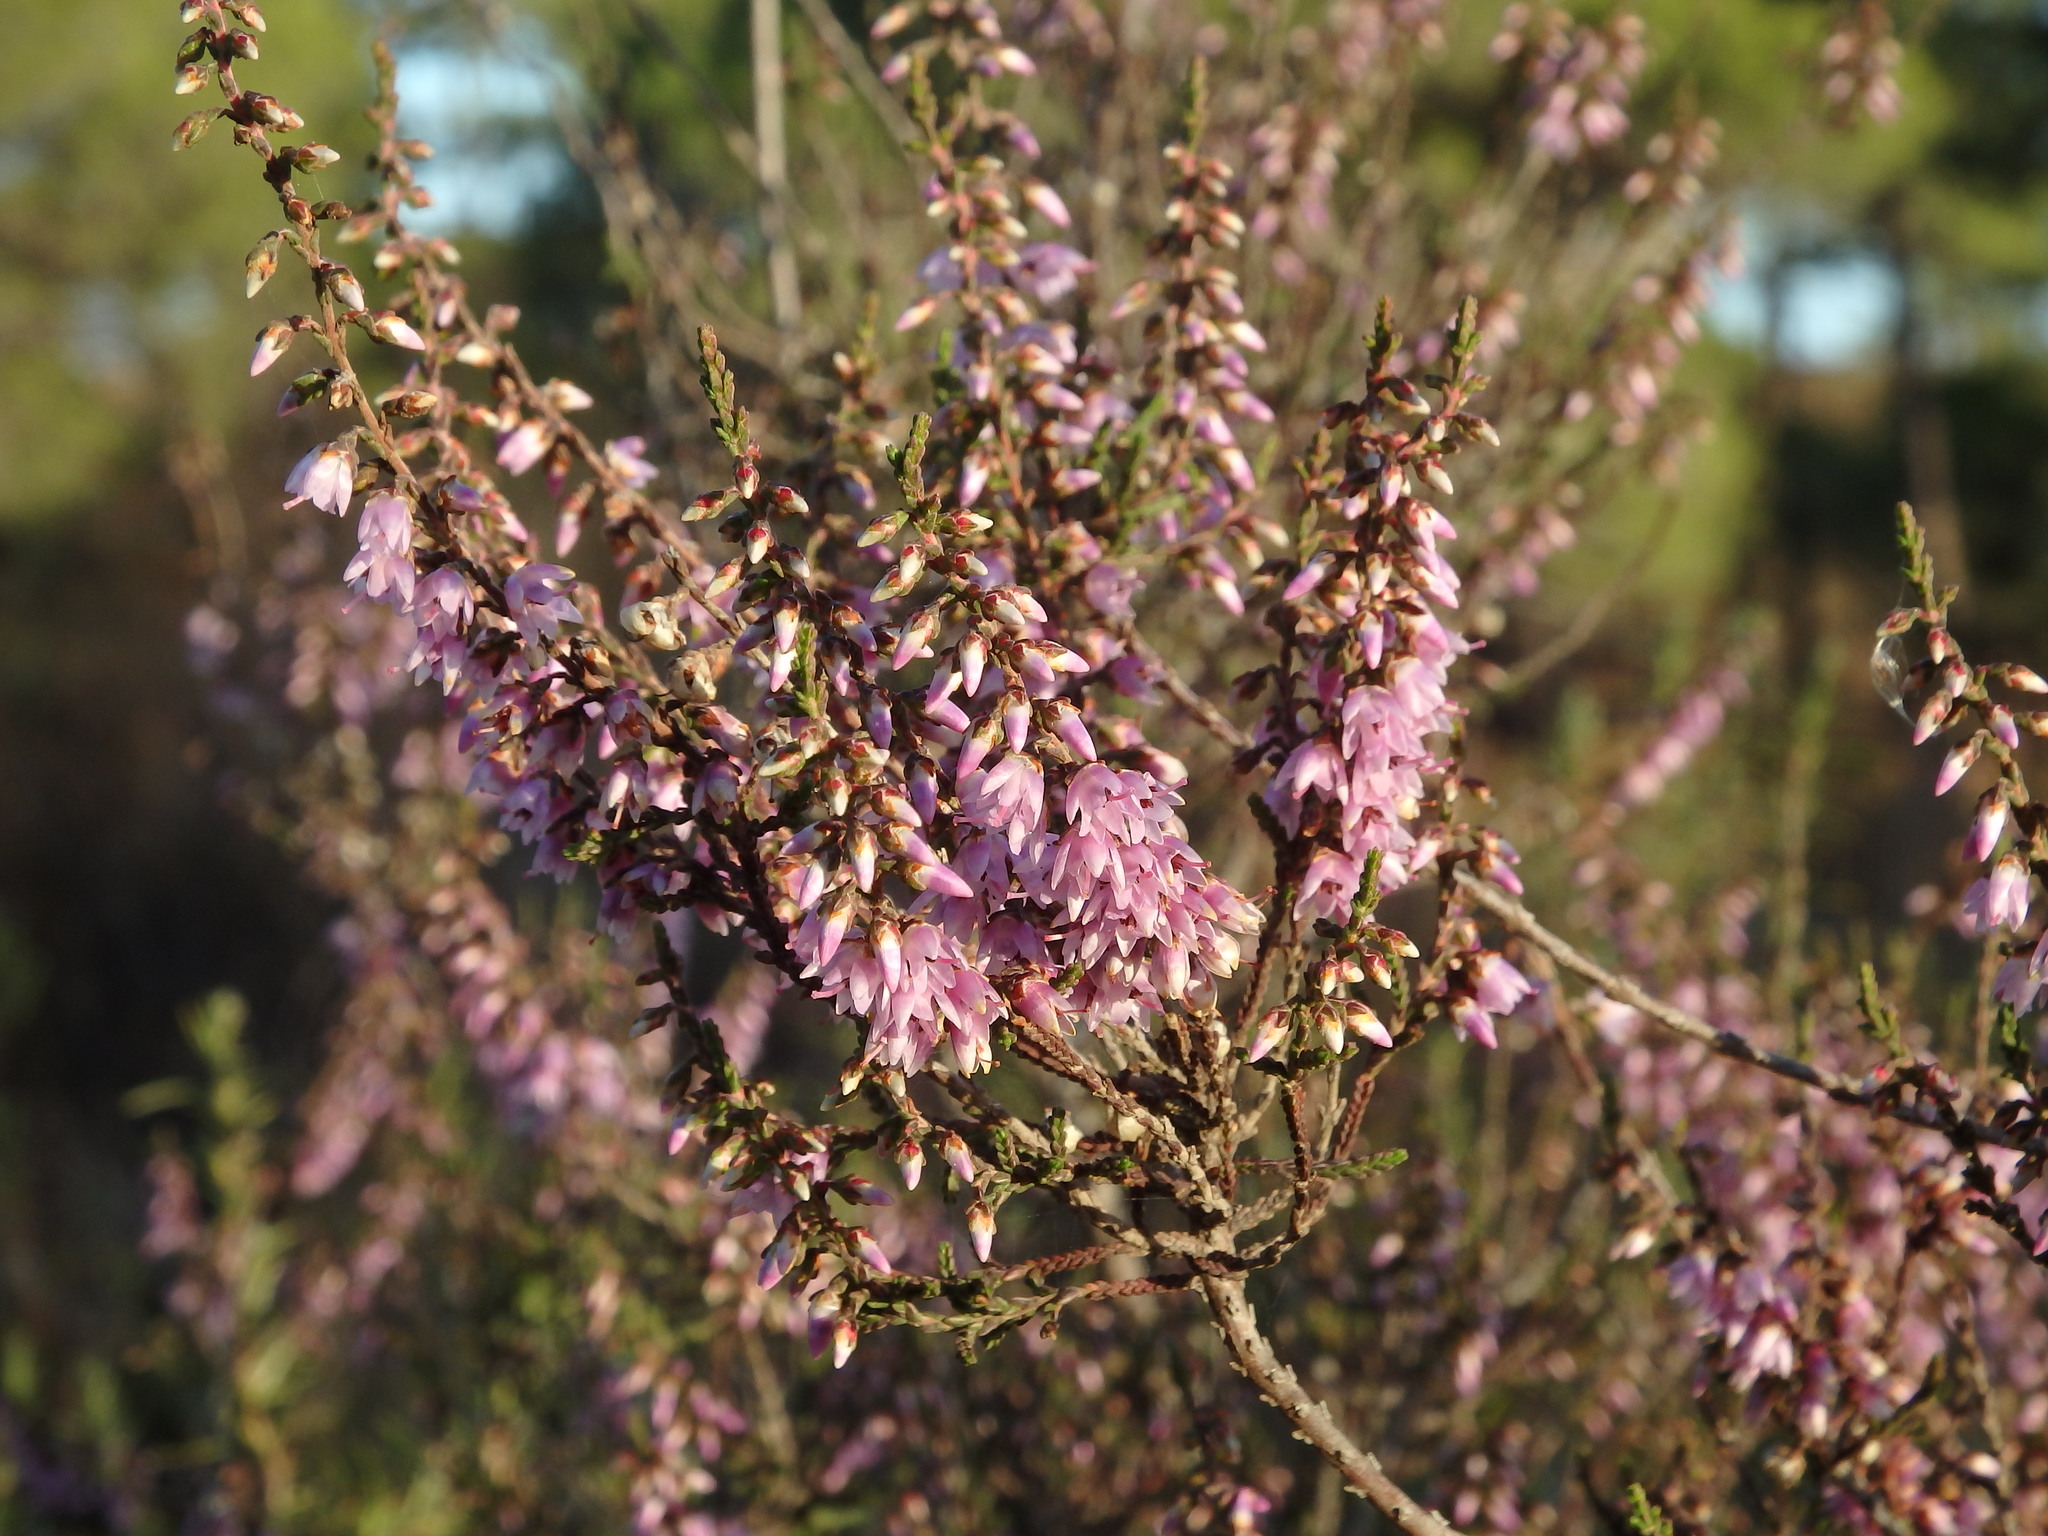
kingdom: Plantae
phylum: Tracheophyta
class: Magnoliopsida
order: Ericales
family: Ericaceae
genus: Calluna
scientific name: Calluna vulgaris
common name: Heather
